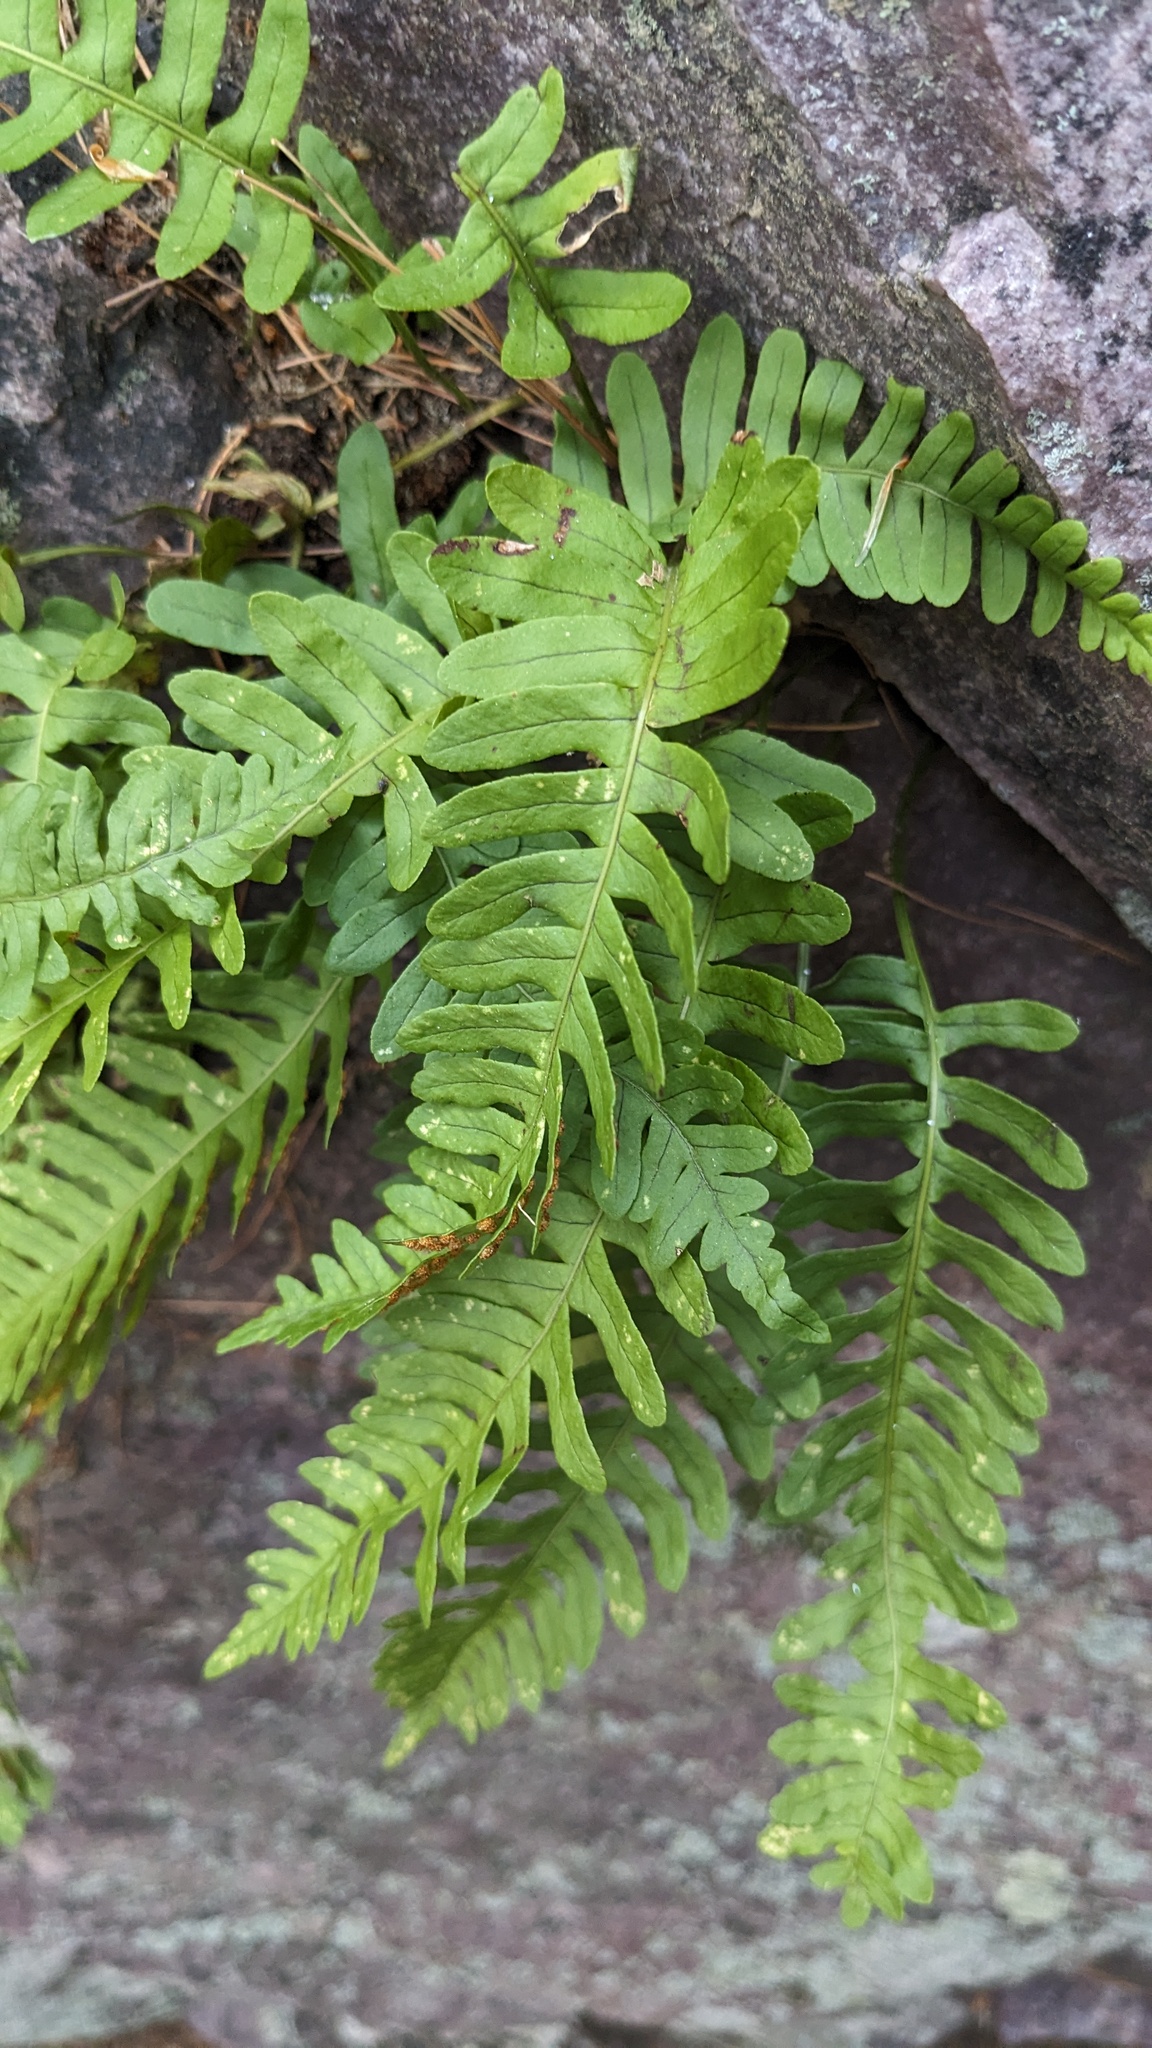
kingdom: Plantae
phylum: Tracheophyta
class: Polypodiopsida
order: Polypodiales
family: Polypodiaceae
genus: Polypodium
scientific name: Polypodium virginianum
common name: American wall fern
